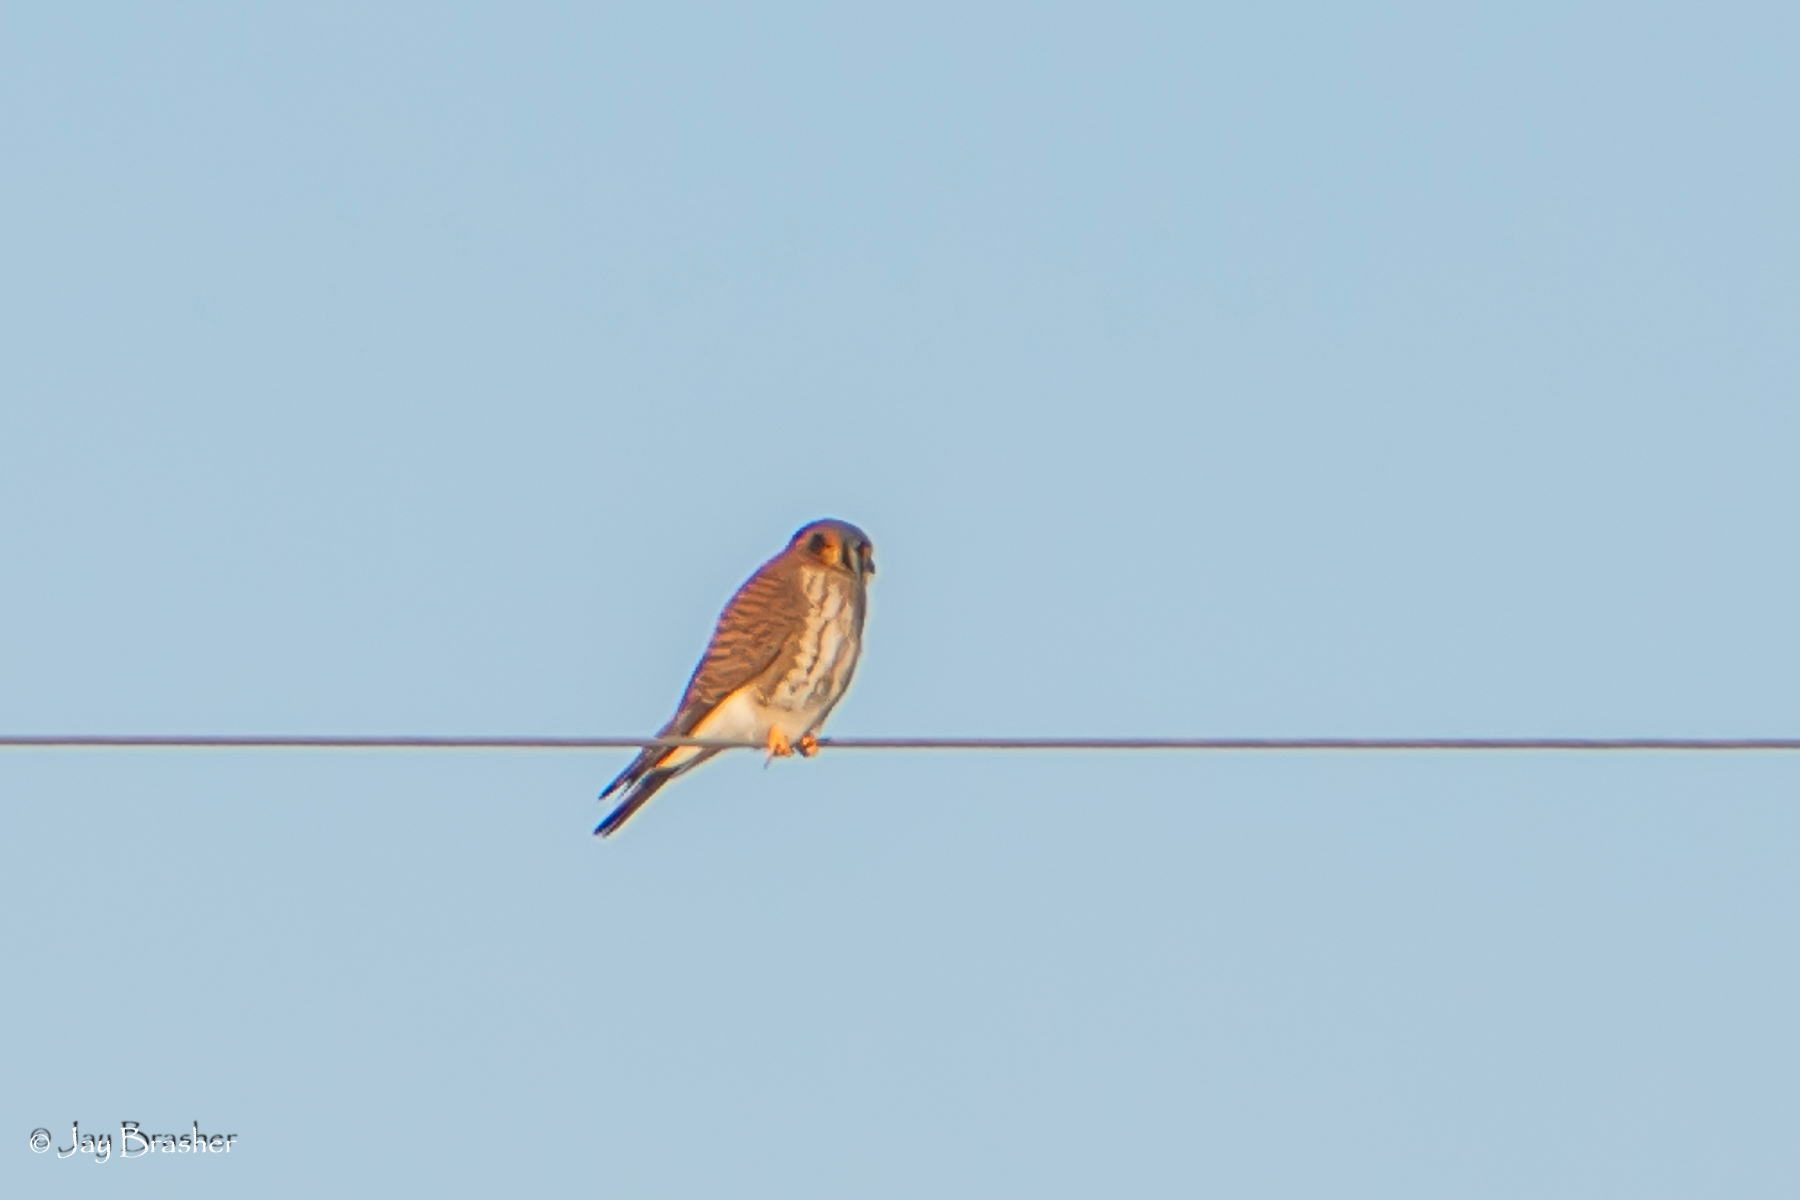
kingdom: Animalia
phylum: Chordata
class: Aves
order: Falconiformes
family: Falconidae
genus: Falco
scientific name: Falco sparverius
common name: American kestrel
